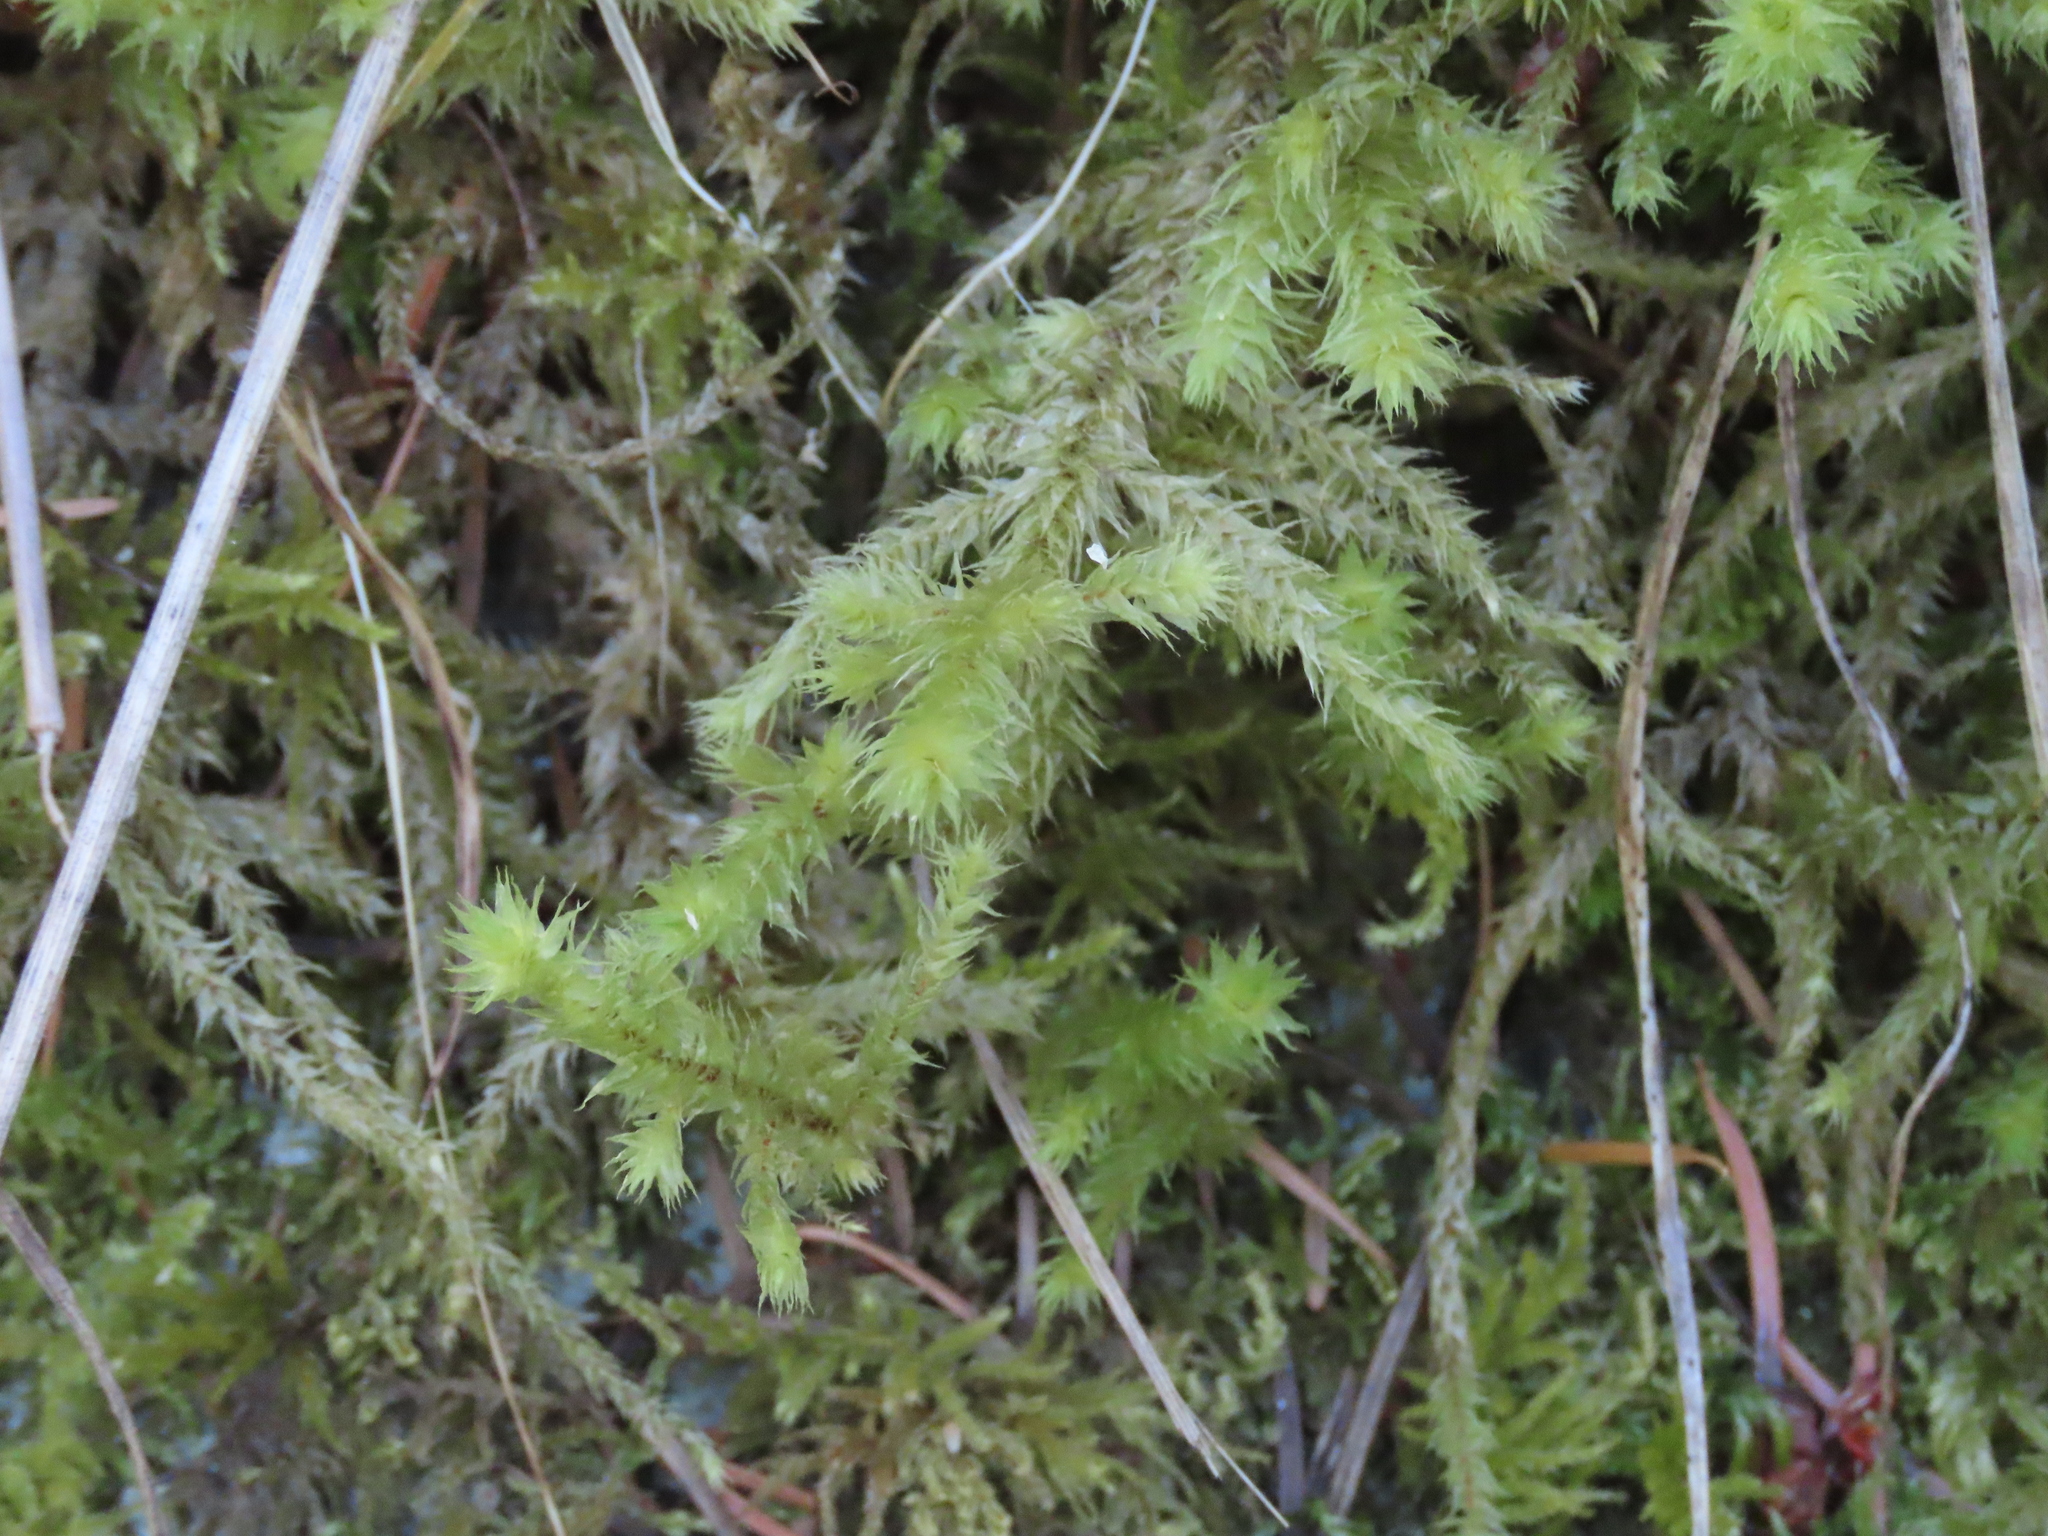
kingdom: Plantae
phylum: Bryophyta
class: Bryopsida
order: Hypnales
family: Hylocomiaceae
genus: Hylocomiadelphus
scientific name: Hylocomiadelphus triquetrus
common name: Rough goose neck moss
